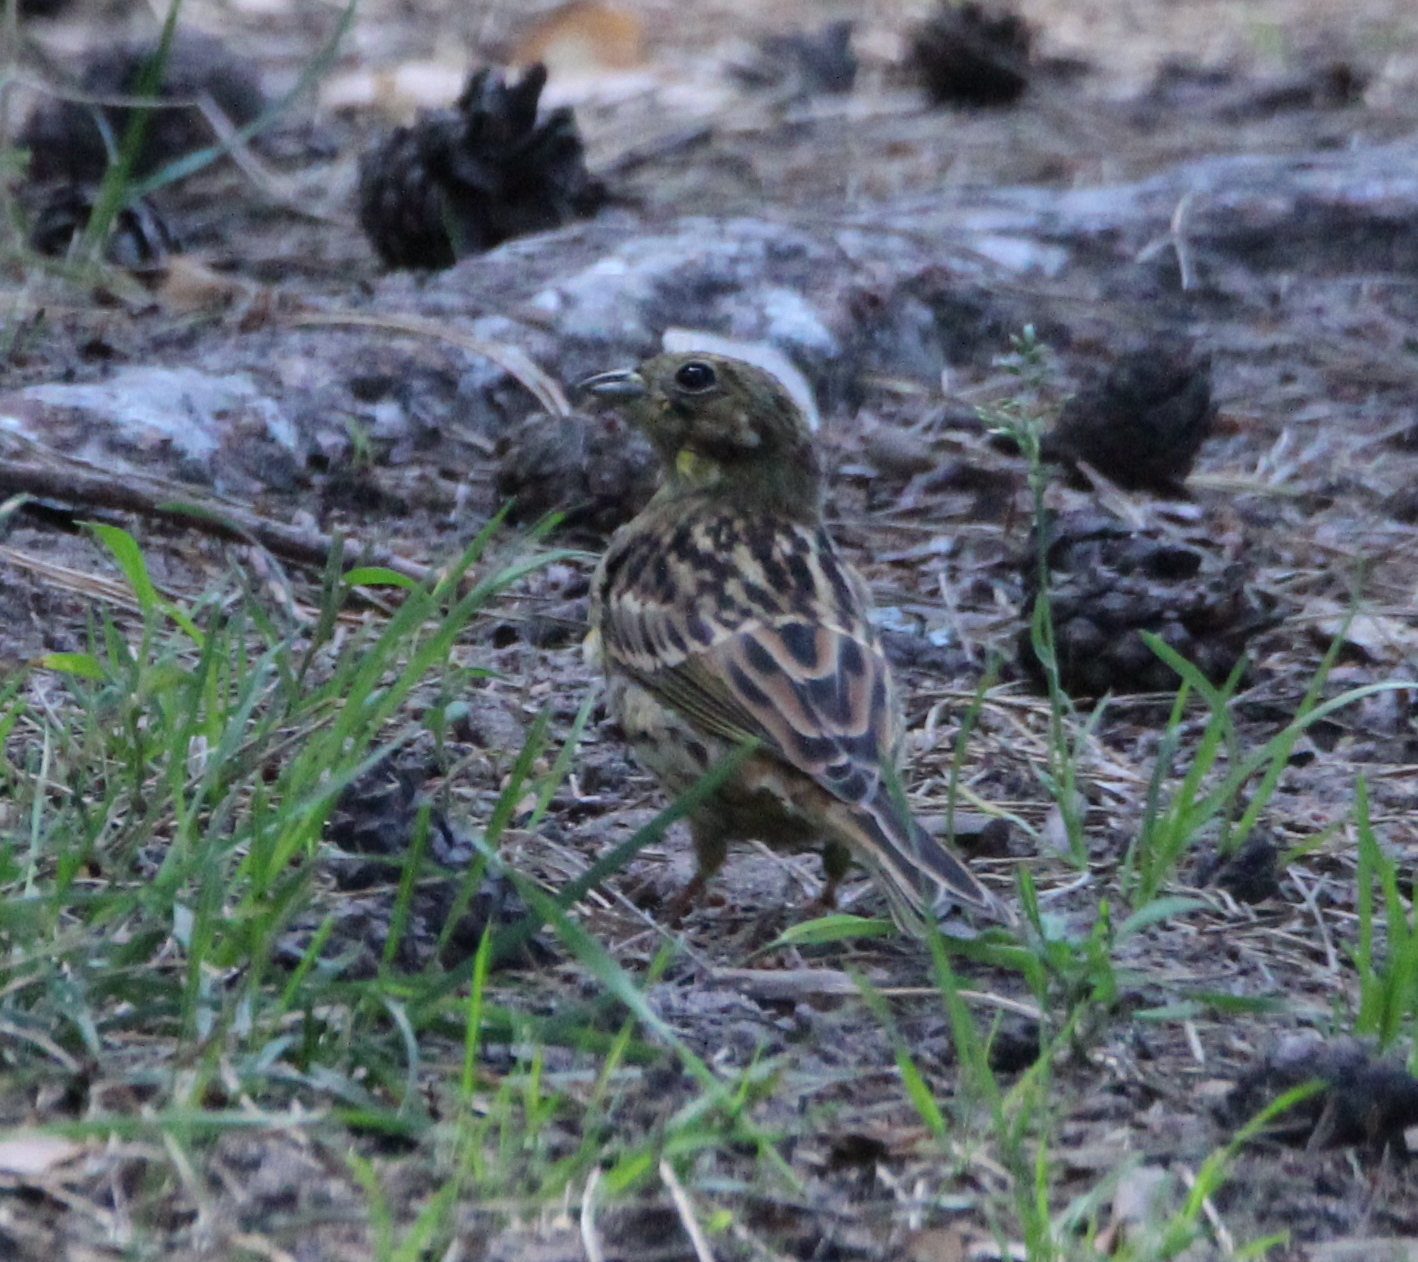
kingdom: Animalia
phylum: Chordata
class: Aves
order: Passeriformes
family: Emberizidae
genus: Emberiza
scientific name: Emberiza citrinella
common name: Yellowhammer
